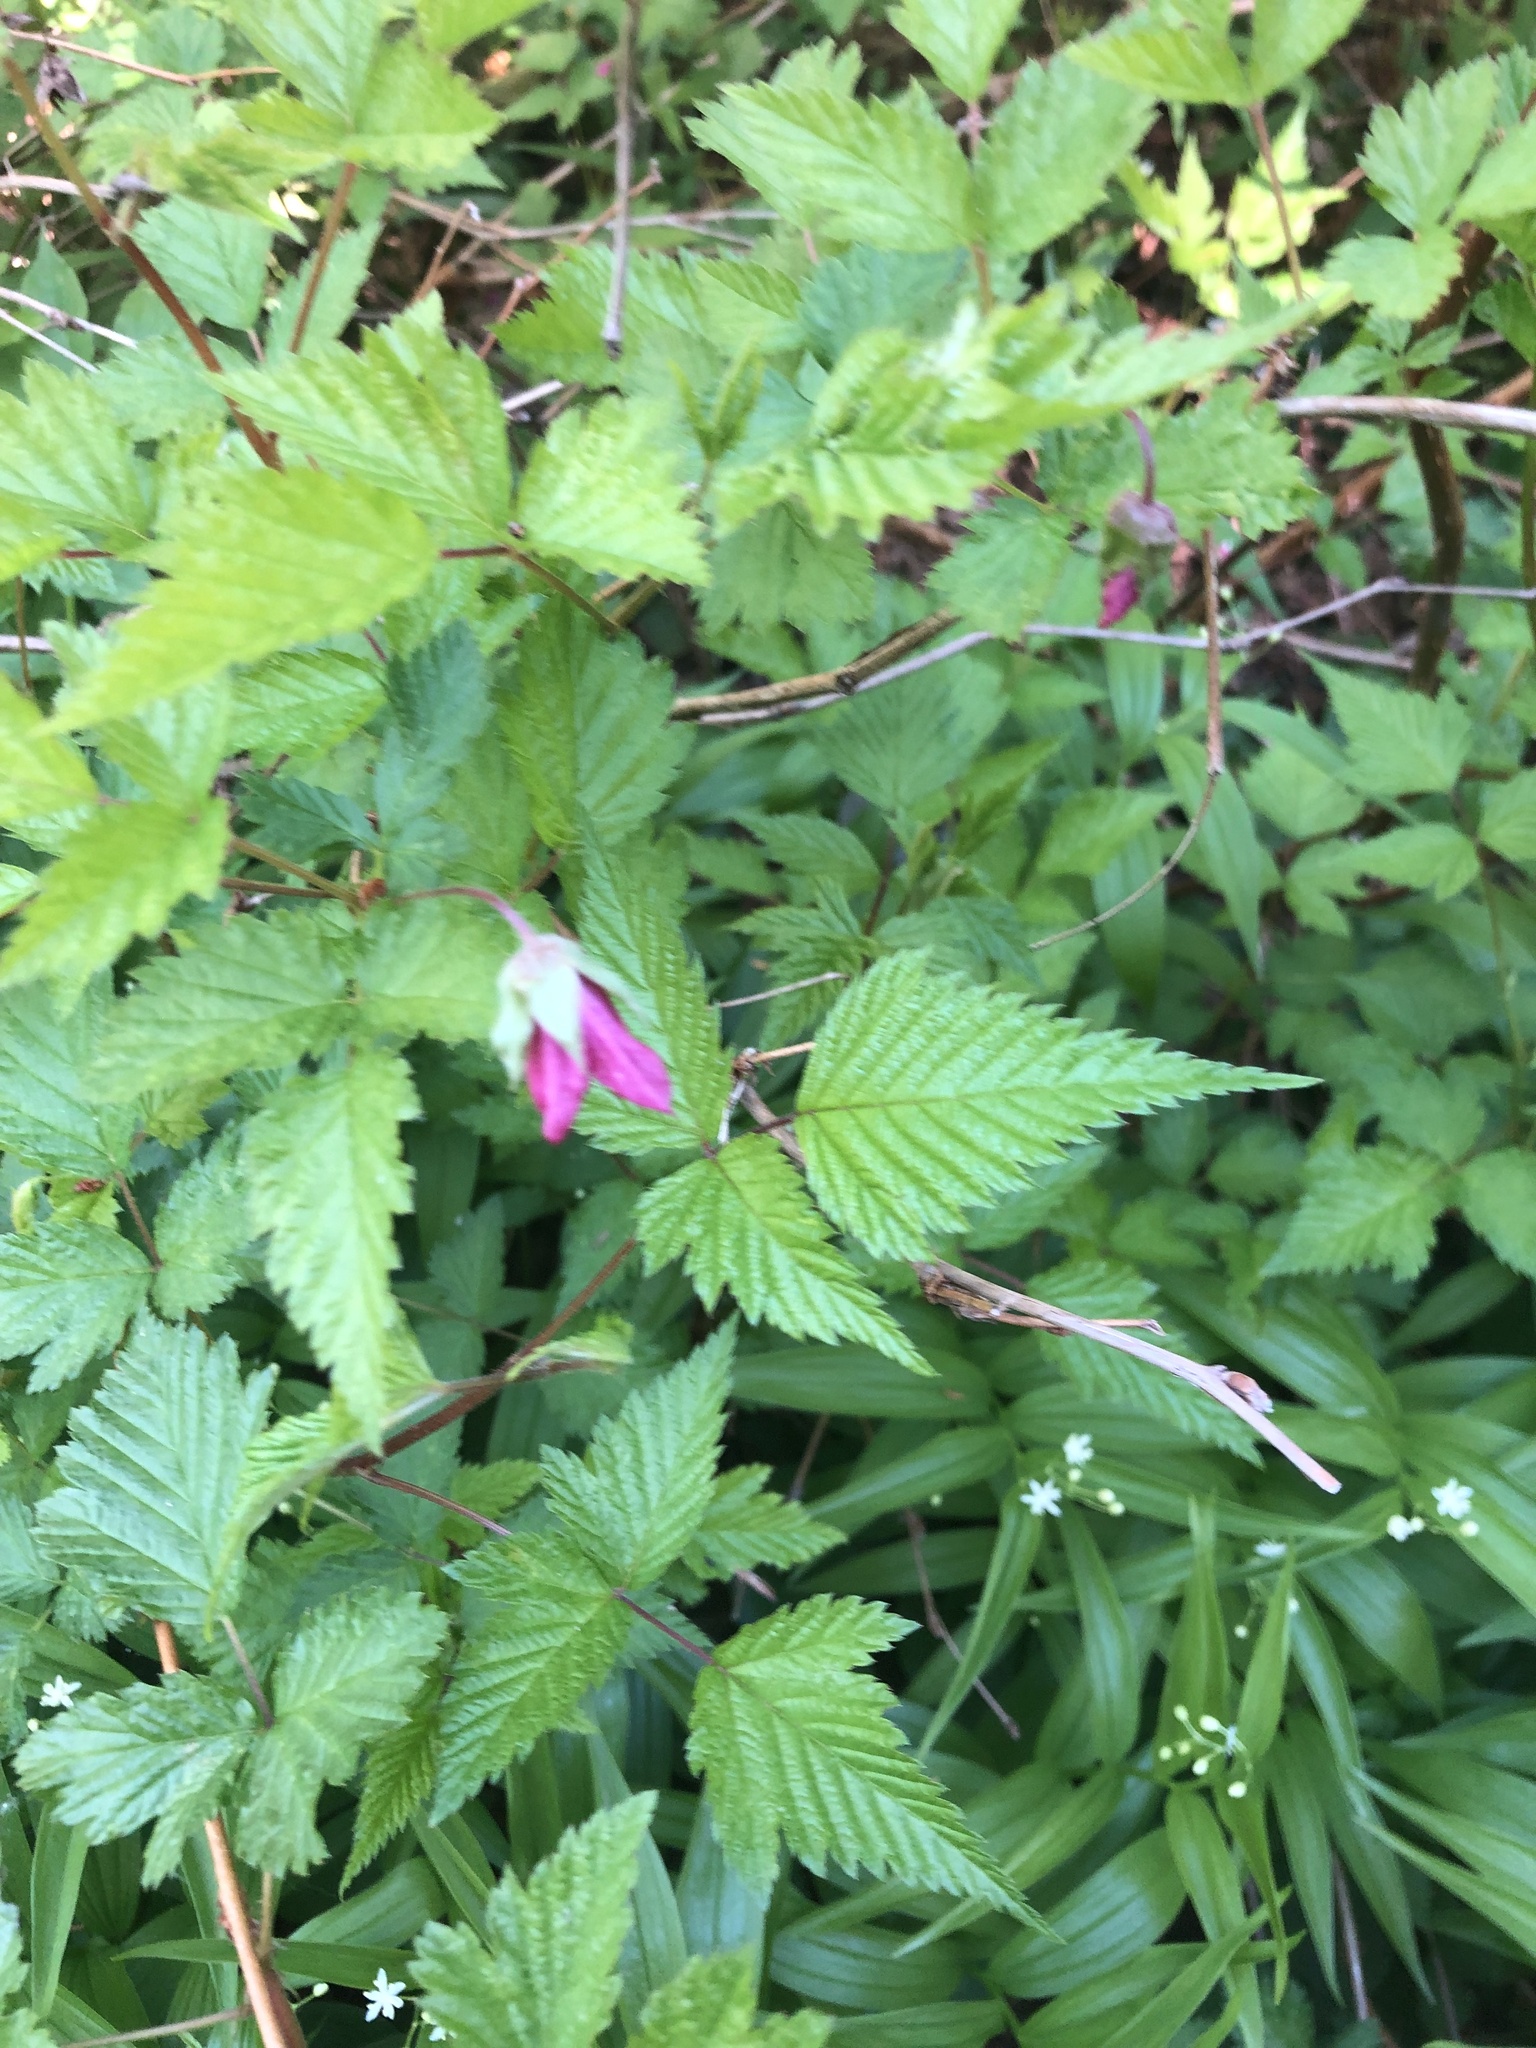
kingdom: Plantae
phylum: Tracheophyta
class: Magnoliopsida
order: Rosales
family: Rosaceae
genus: Rubus
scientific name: Rubus spectabilis
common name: Salmonberry
